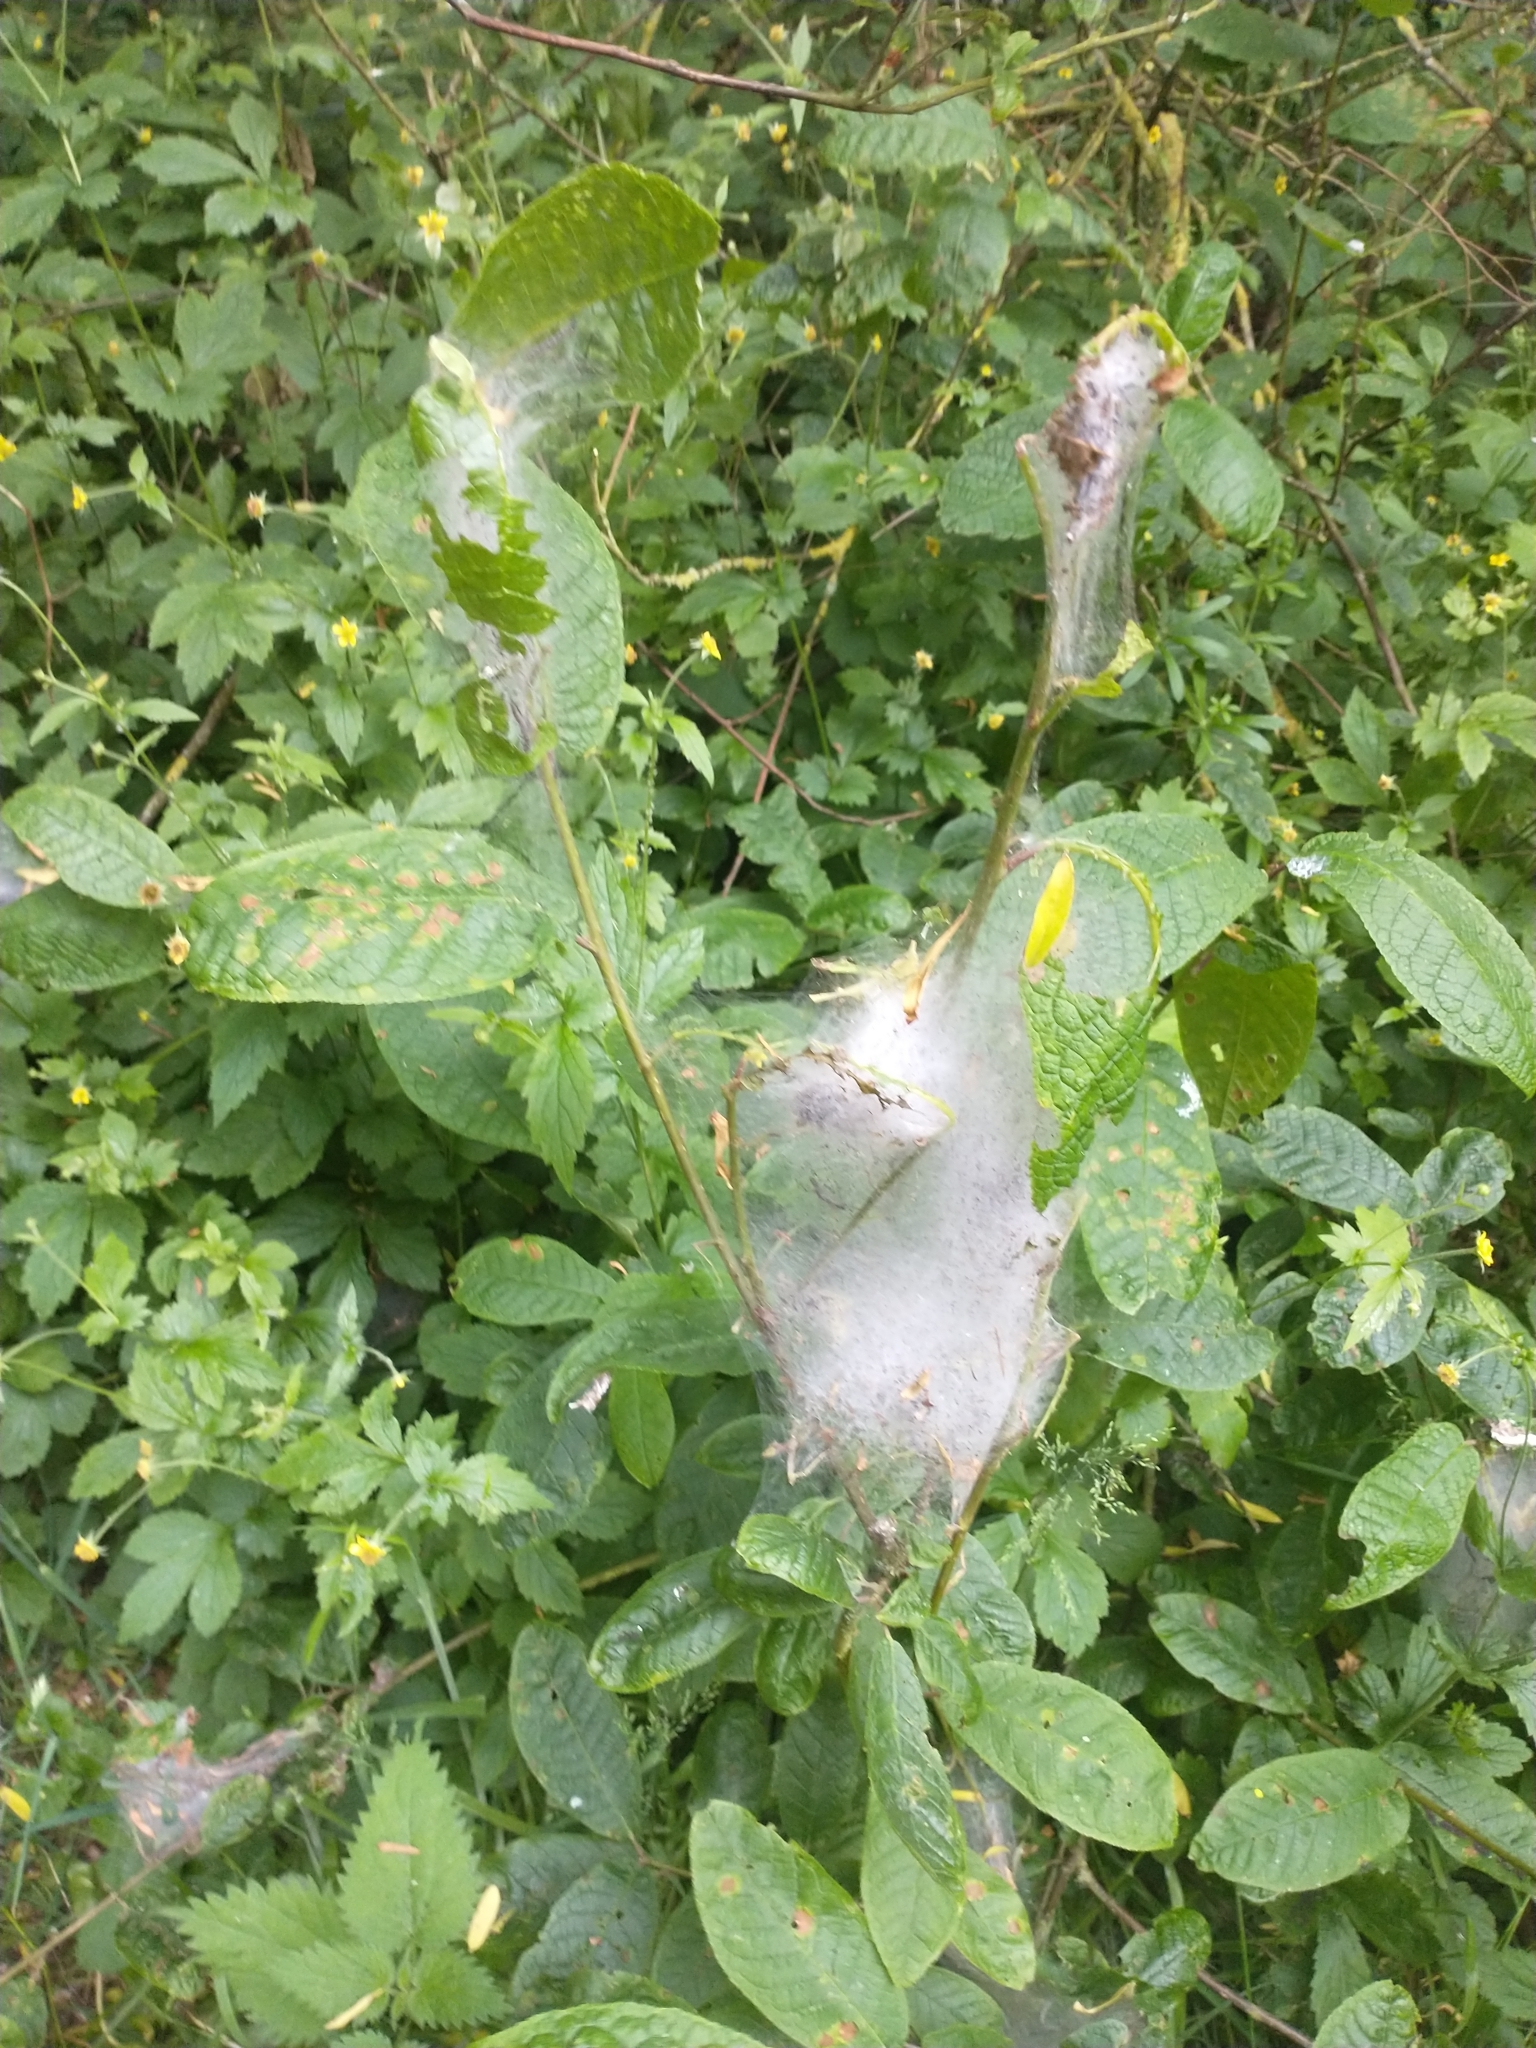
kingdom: Plantae
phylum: Tracheophyta
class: Magnoliopsida
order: Rosales
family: Rosaceae
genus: Prunus
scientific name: Prunus padus
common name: Bird cherry
